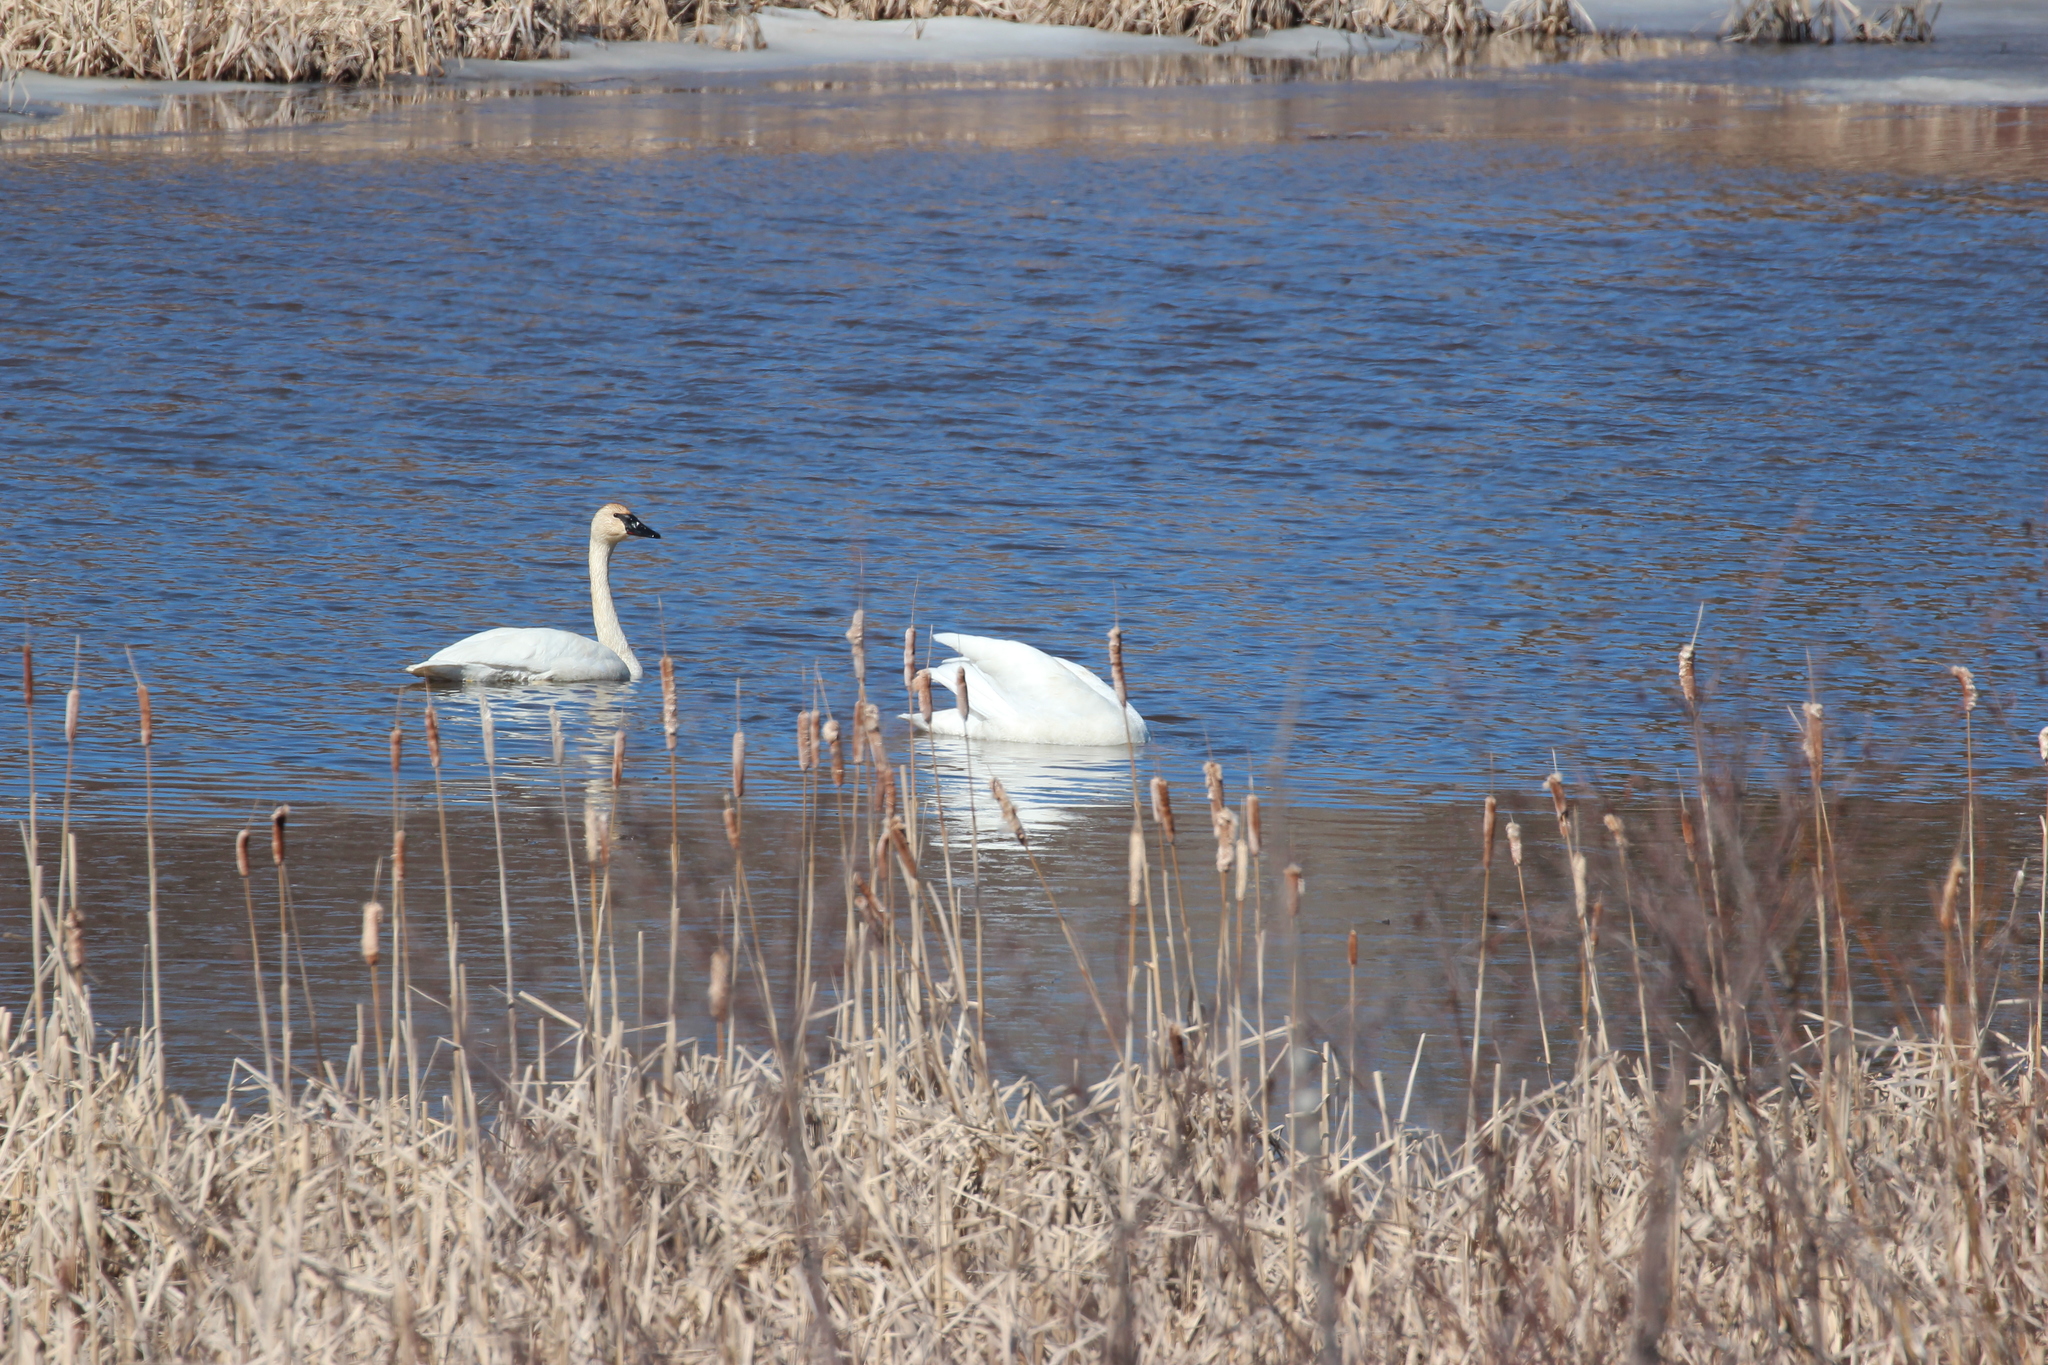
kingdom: Animalia
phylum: Chordata
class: Aves
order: Anseriformes
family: Anatidae
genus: Cygnus
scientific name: Cygnus buccinator
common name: Trumpeter swan
